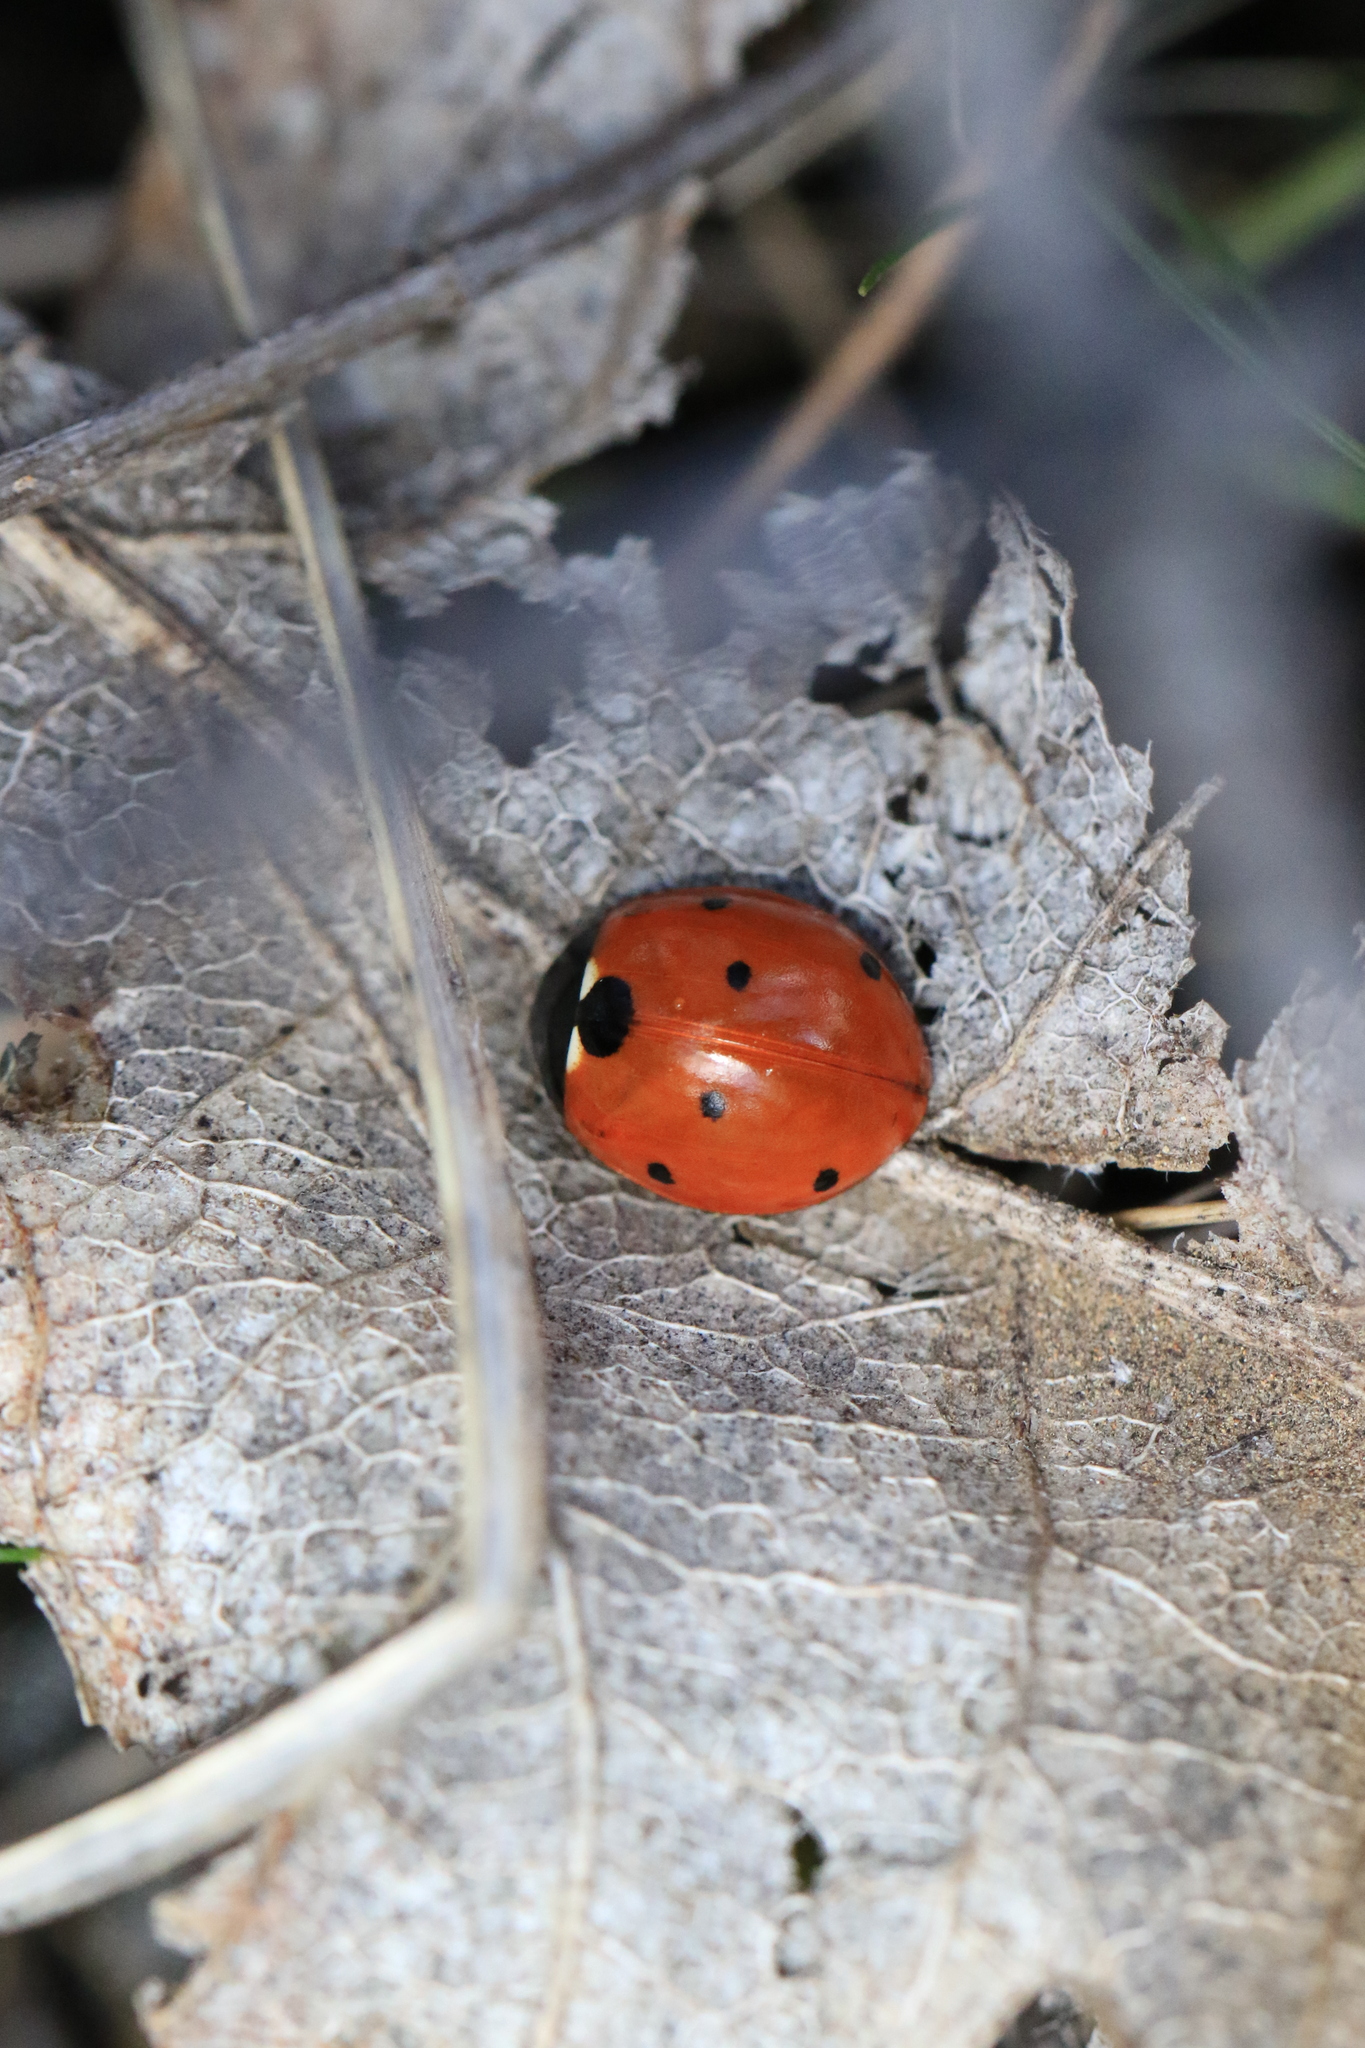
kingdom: Animalia
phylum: Arthropoda
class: Insecta
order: Coleoptera
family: Coccinellidae
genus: Coccinella
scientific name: Coccinella septempunctata
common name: Sevenspotted lady beetle
